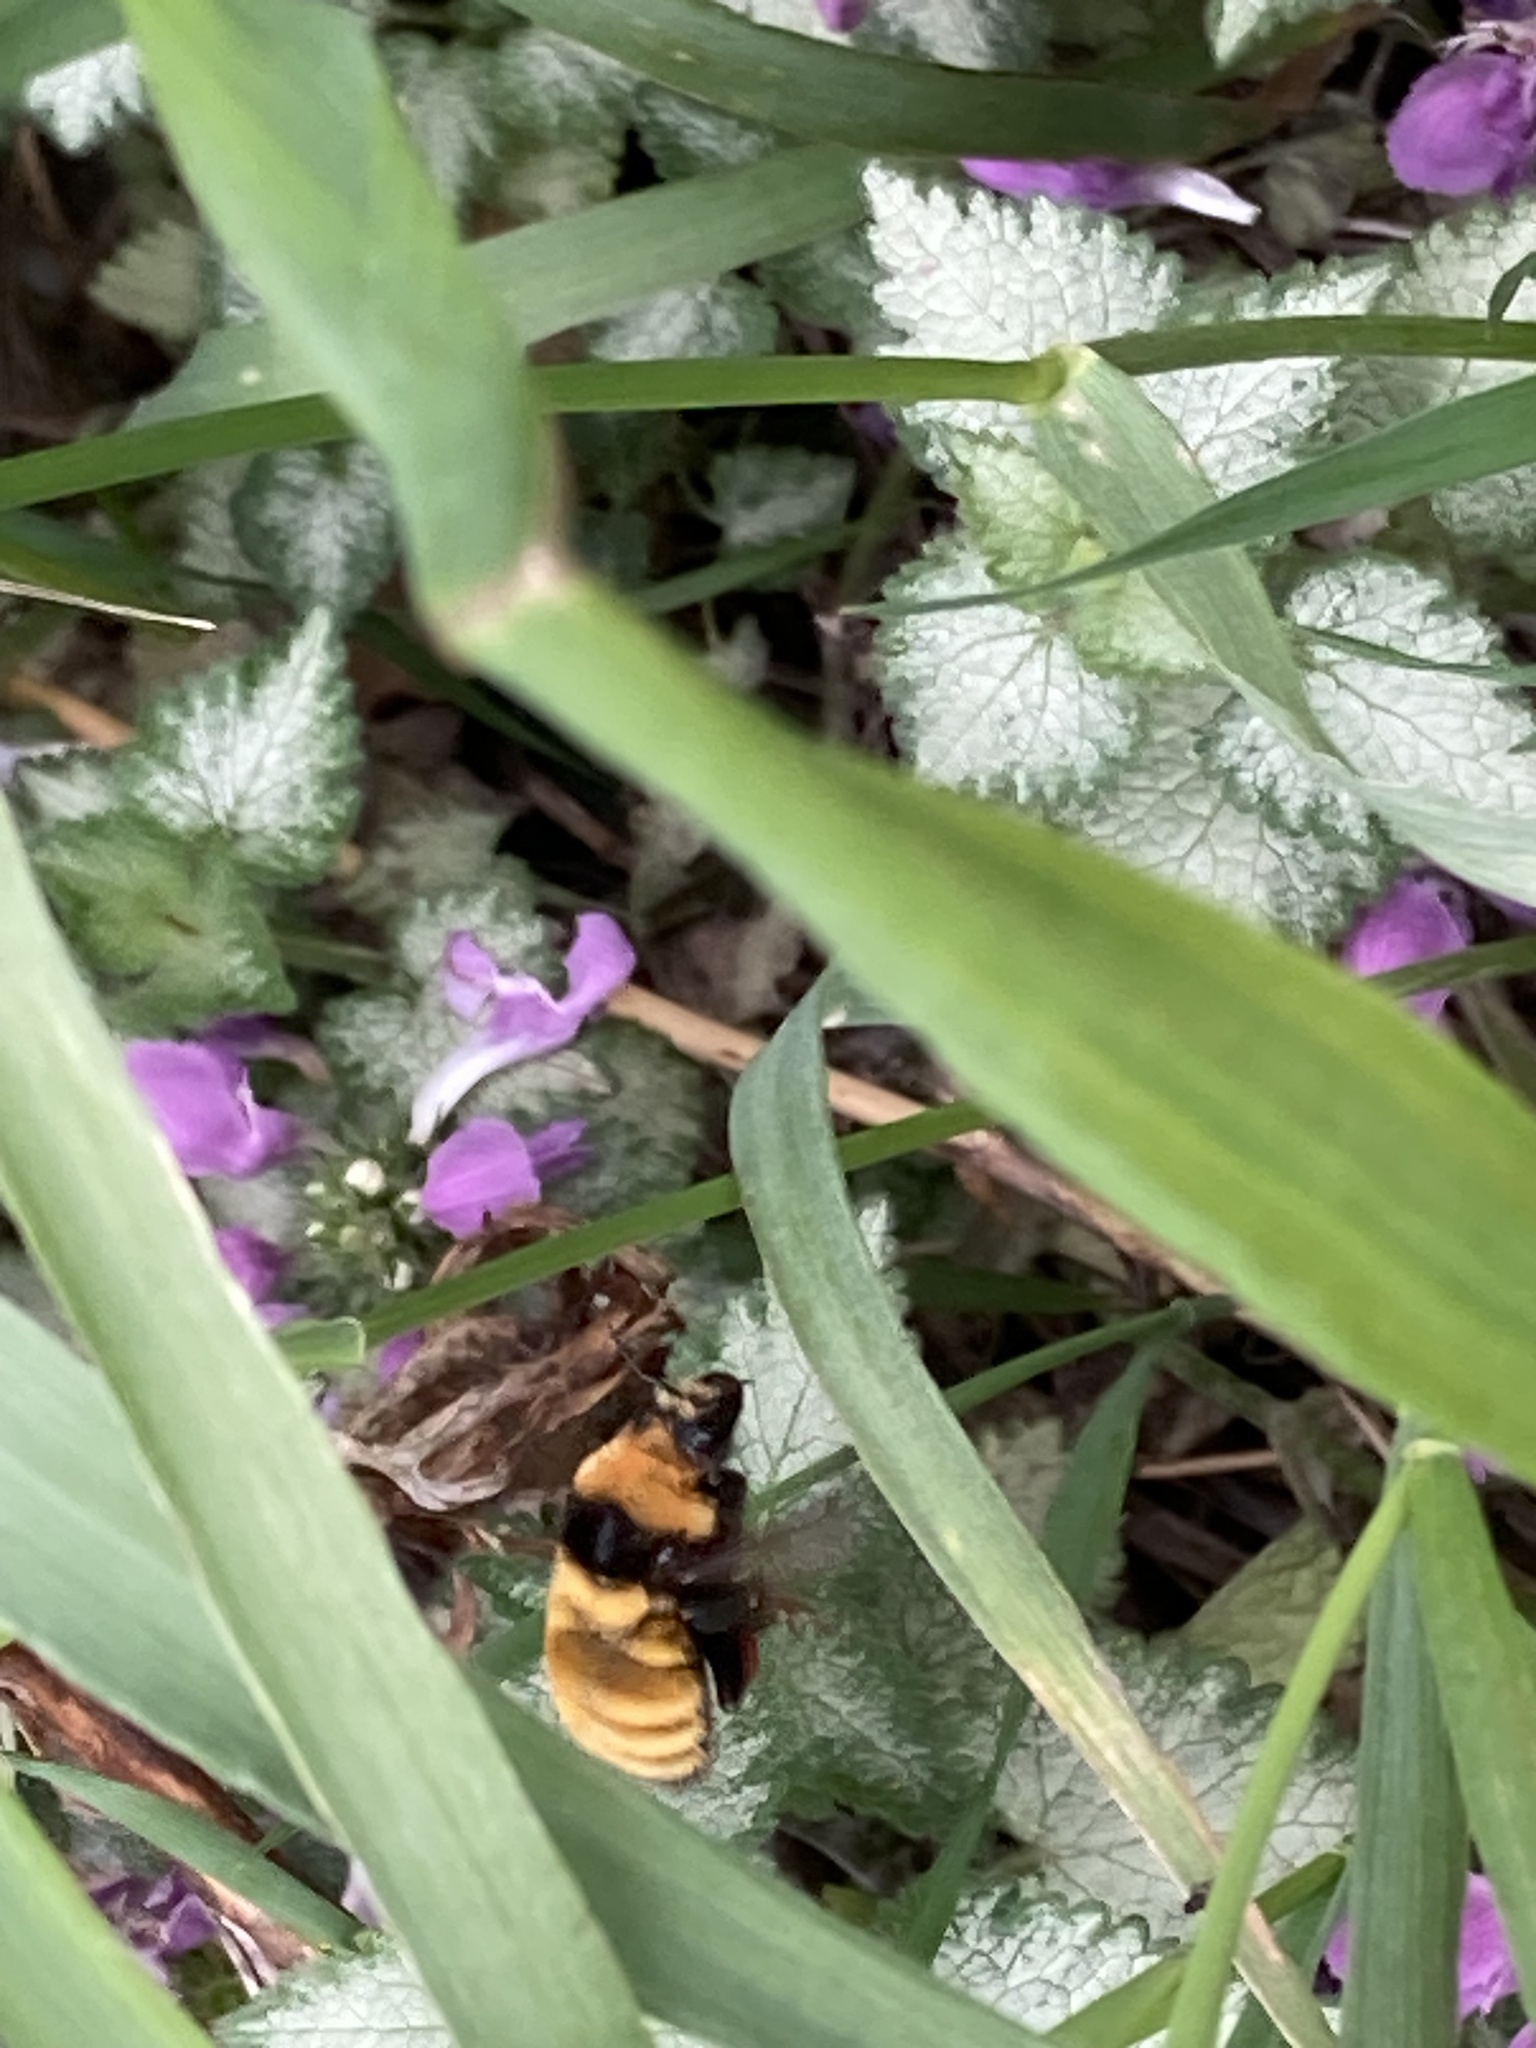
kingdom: Animalia
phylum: Arthropoda
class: Insecta
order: Hymenoptera
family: Apidae
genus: Bombus
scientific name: Bombus borealis
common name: Northern amber bumble bee
